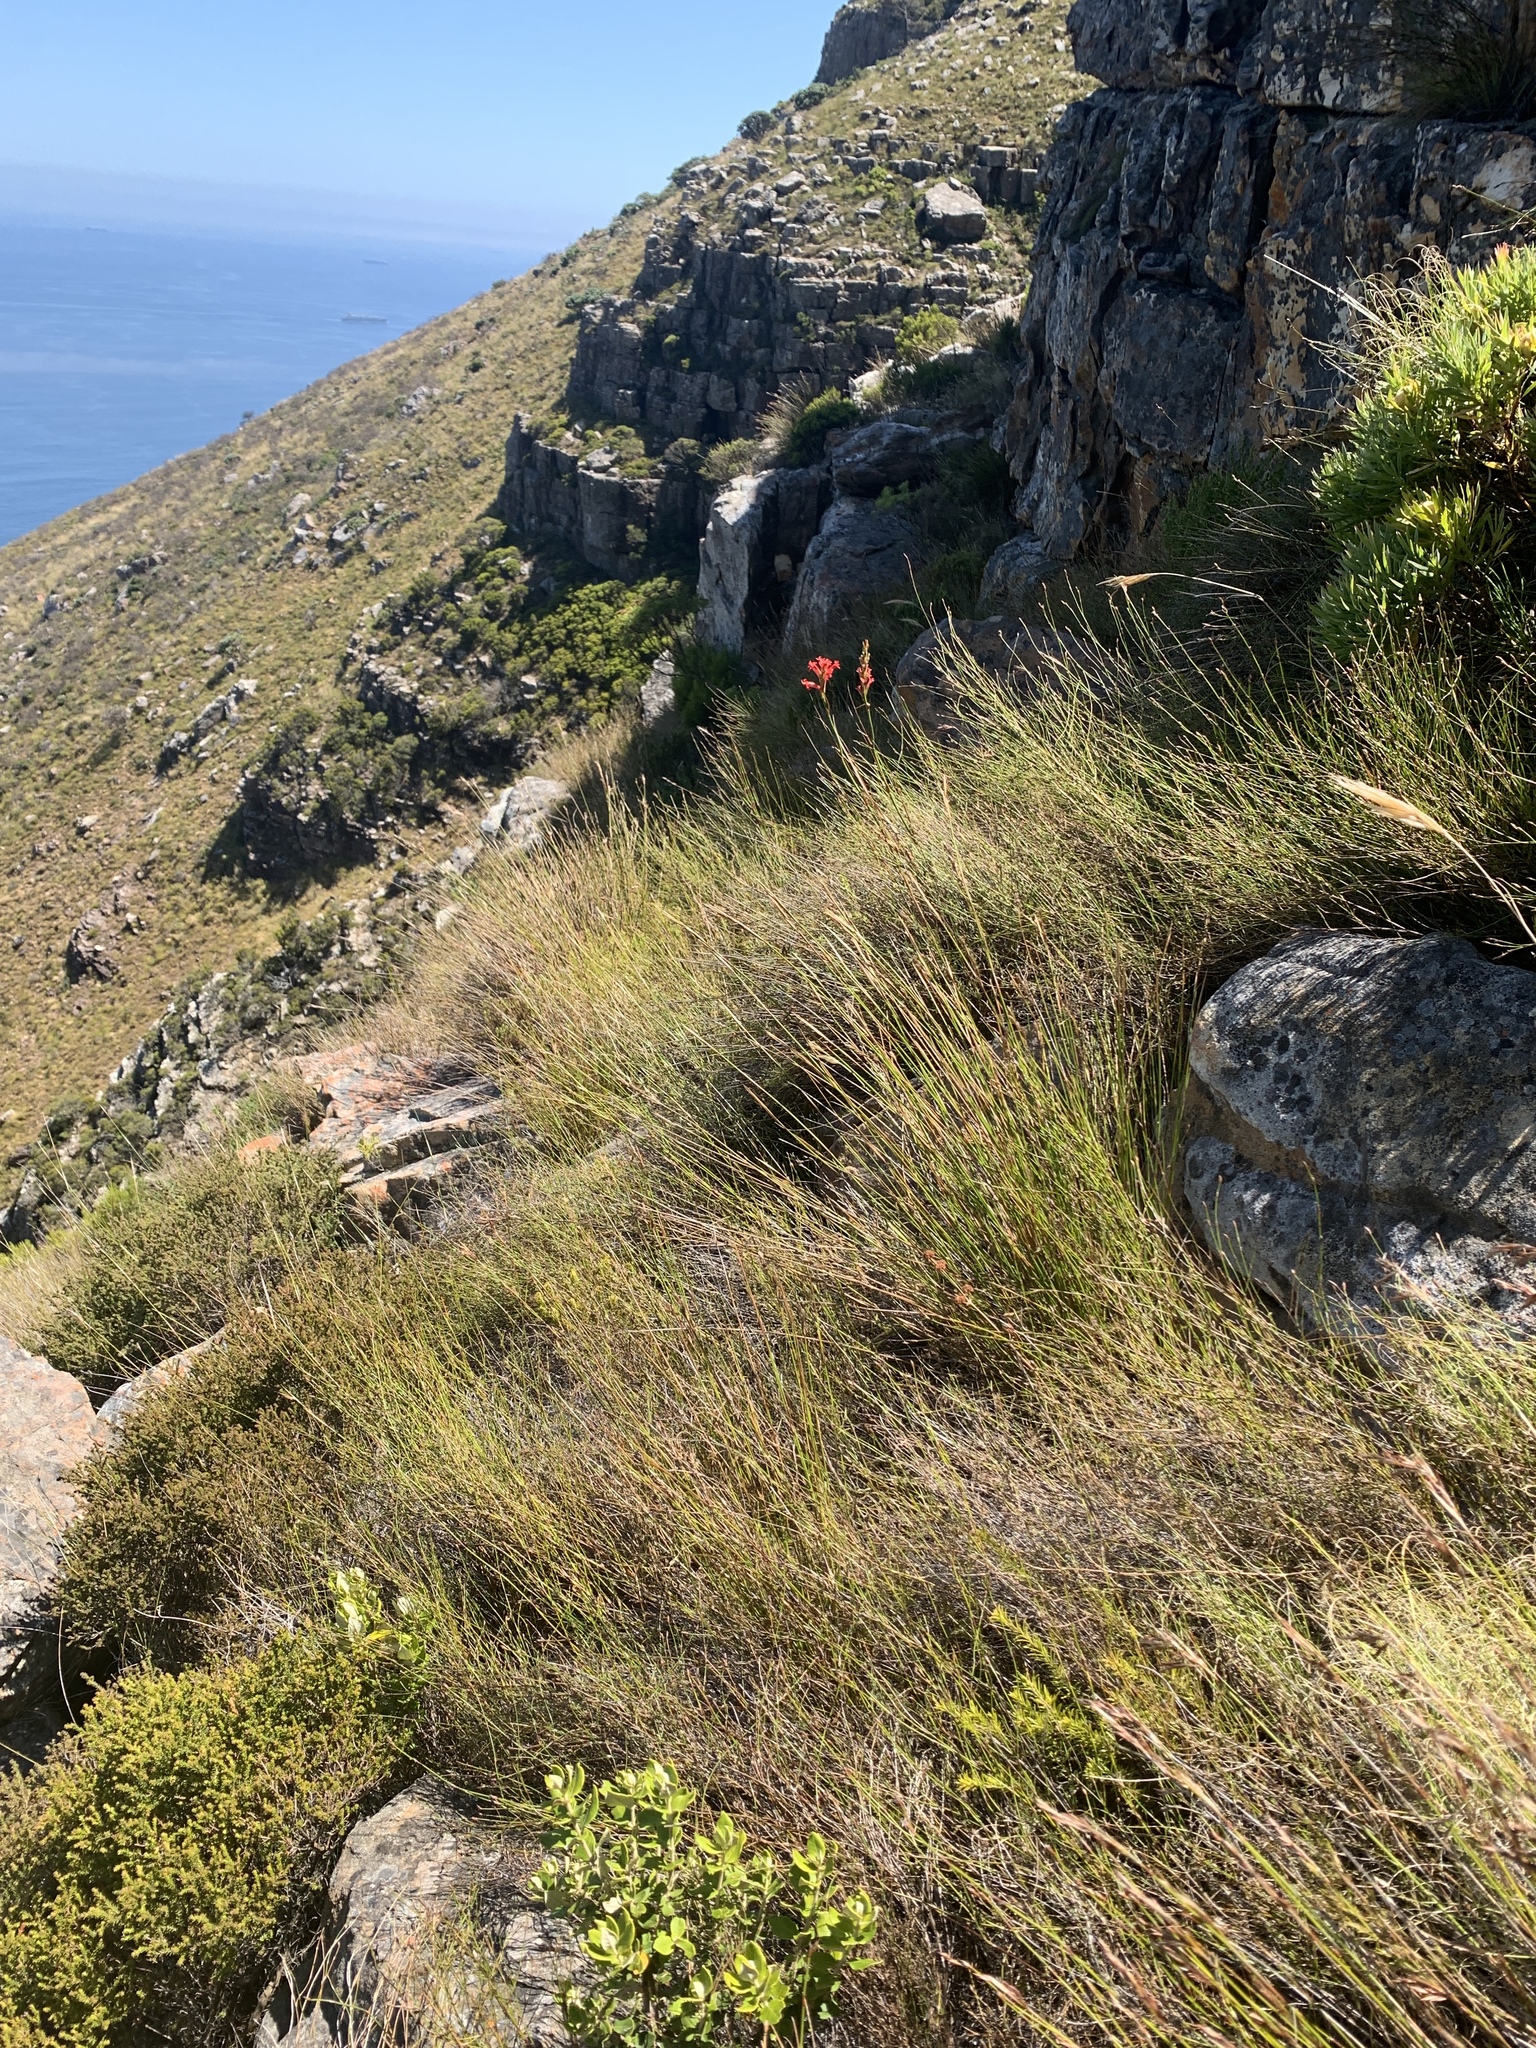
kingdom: Plantae
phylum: Tracheophyta
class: Liliopsida
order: Asparagales
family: Iridaceae
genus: Tritoniopsis
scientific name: Tritoniopsis triticea
